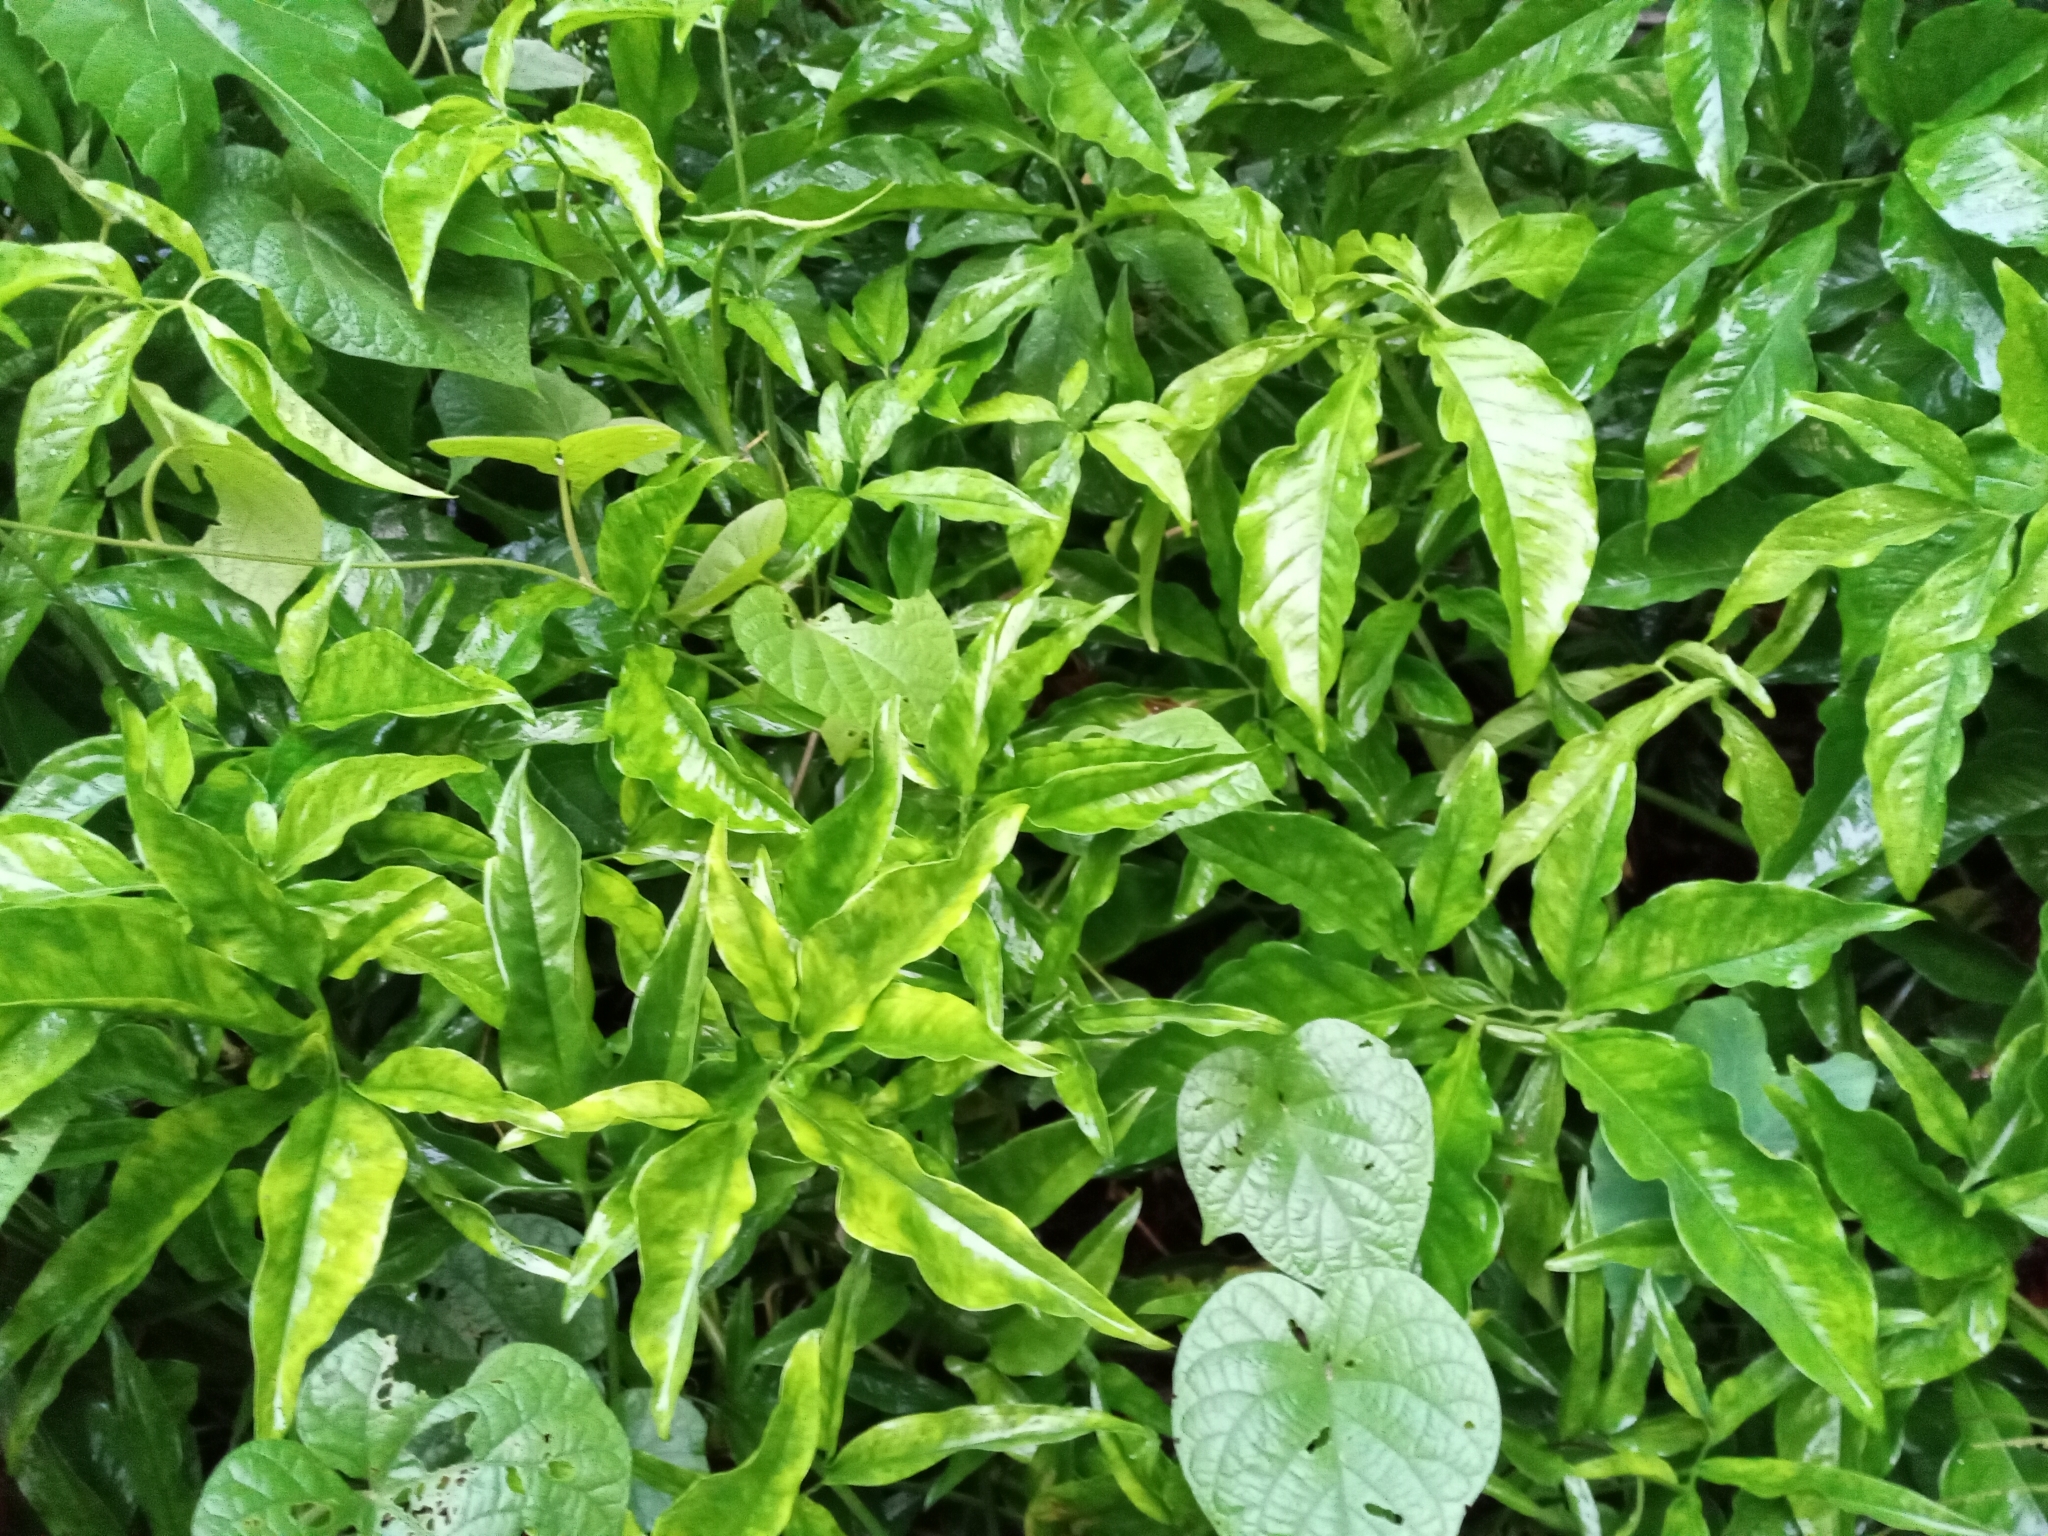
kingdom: Plantae
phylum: Tracheophyta
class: Liliopsida
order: Alismatales
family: Araceae
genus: Syngonium
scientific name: Syngonium podophyllum
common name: American evergreen
